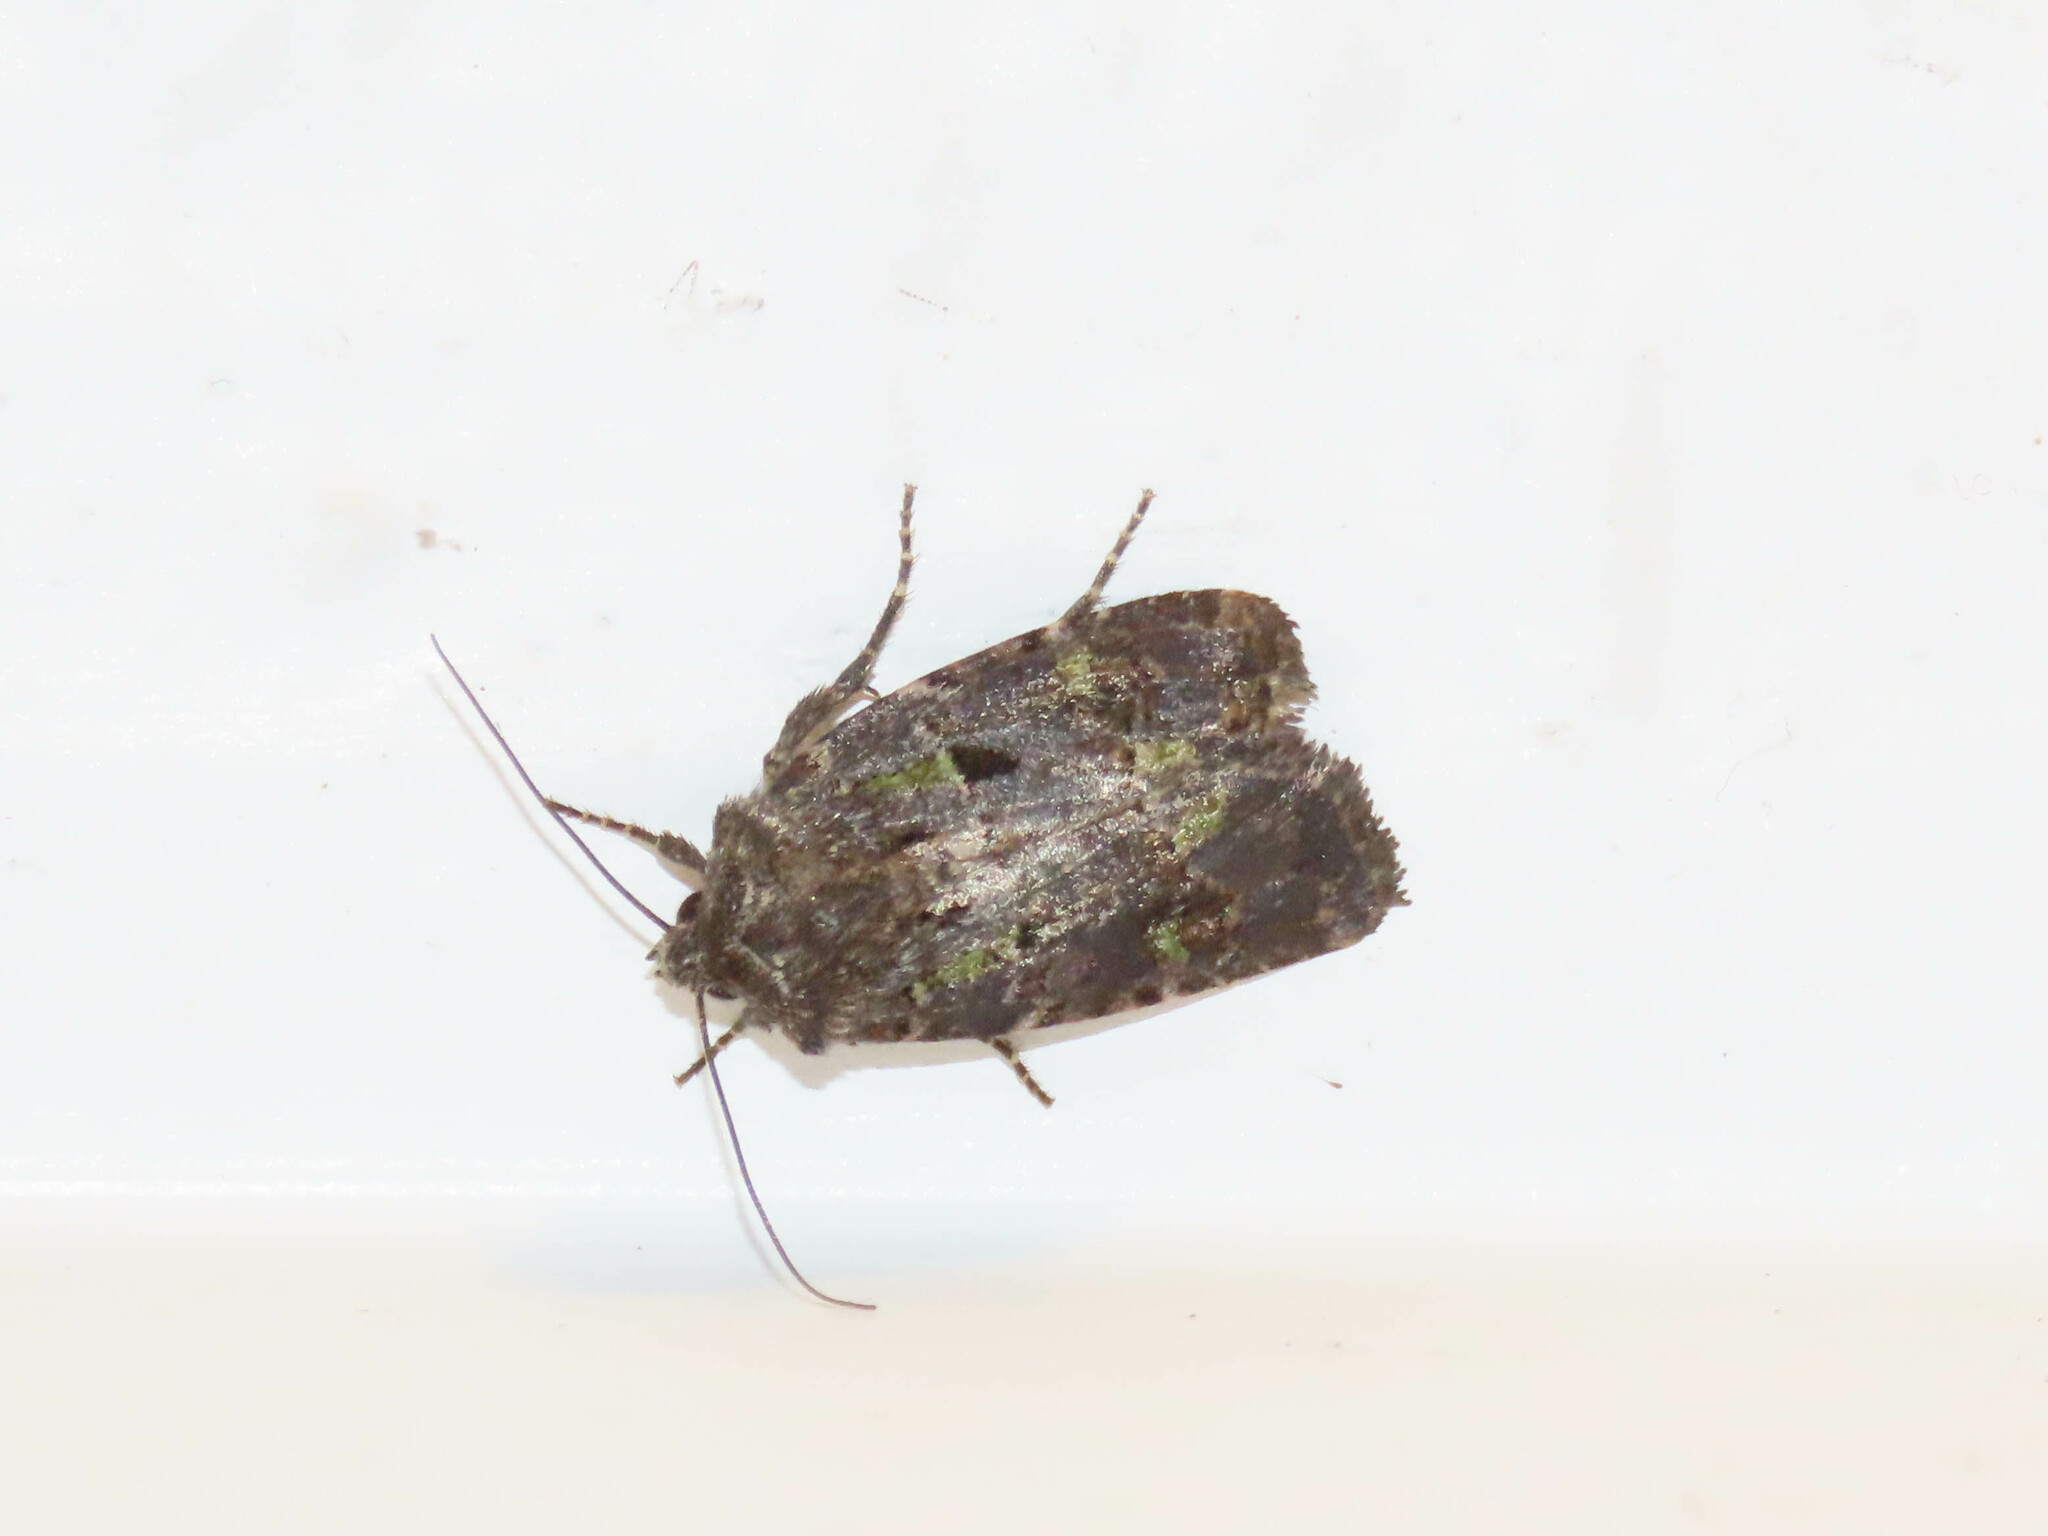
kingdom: Animalia
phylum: Arthropoda
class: Insecta
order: Lepidoptera
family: Noctuidae
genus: Lacinipolia
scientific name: Lacinipolia renigera
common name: Kidney-spotted minor
